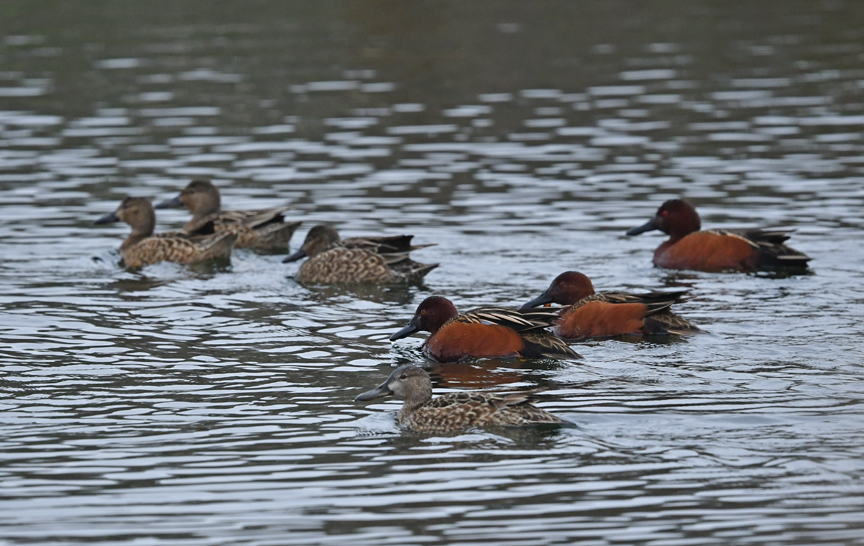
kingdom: Animalia
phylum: Chordata
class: Aves
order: Anseriformes
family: Anatidae
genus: Spatula
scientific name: Spatula cyanoptera
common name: Cinnamon teal
